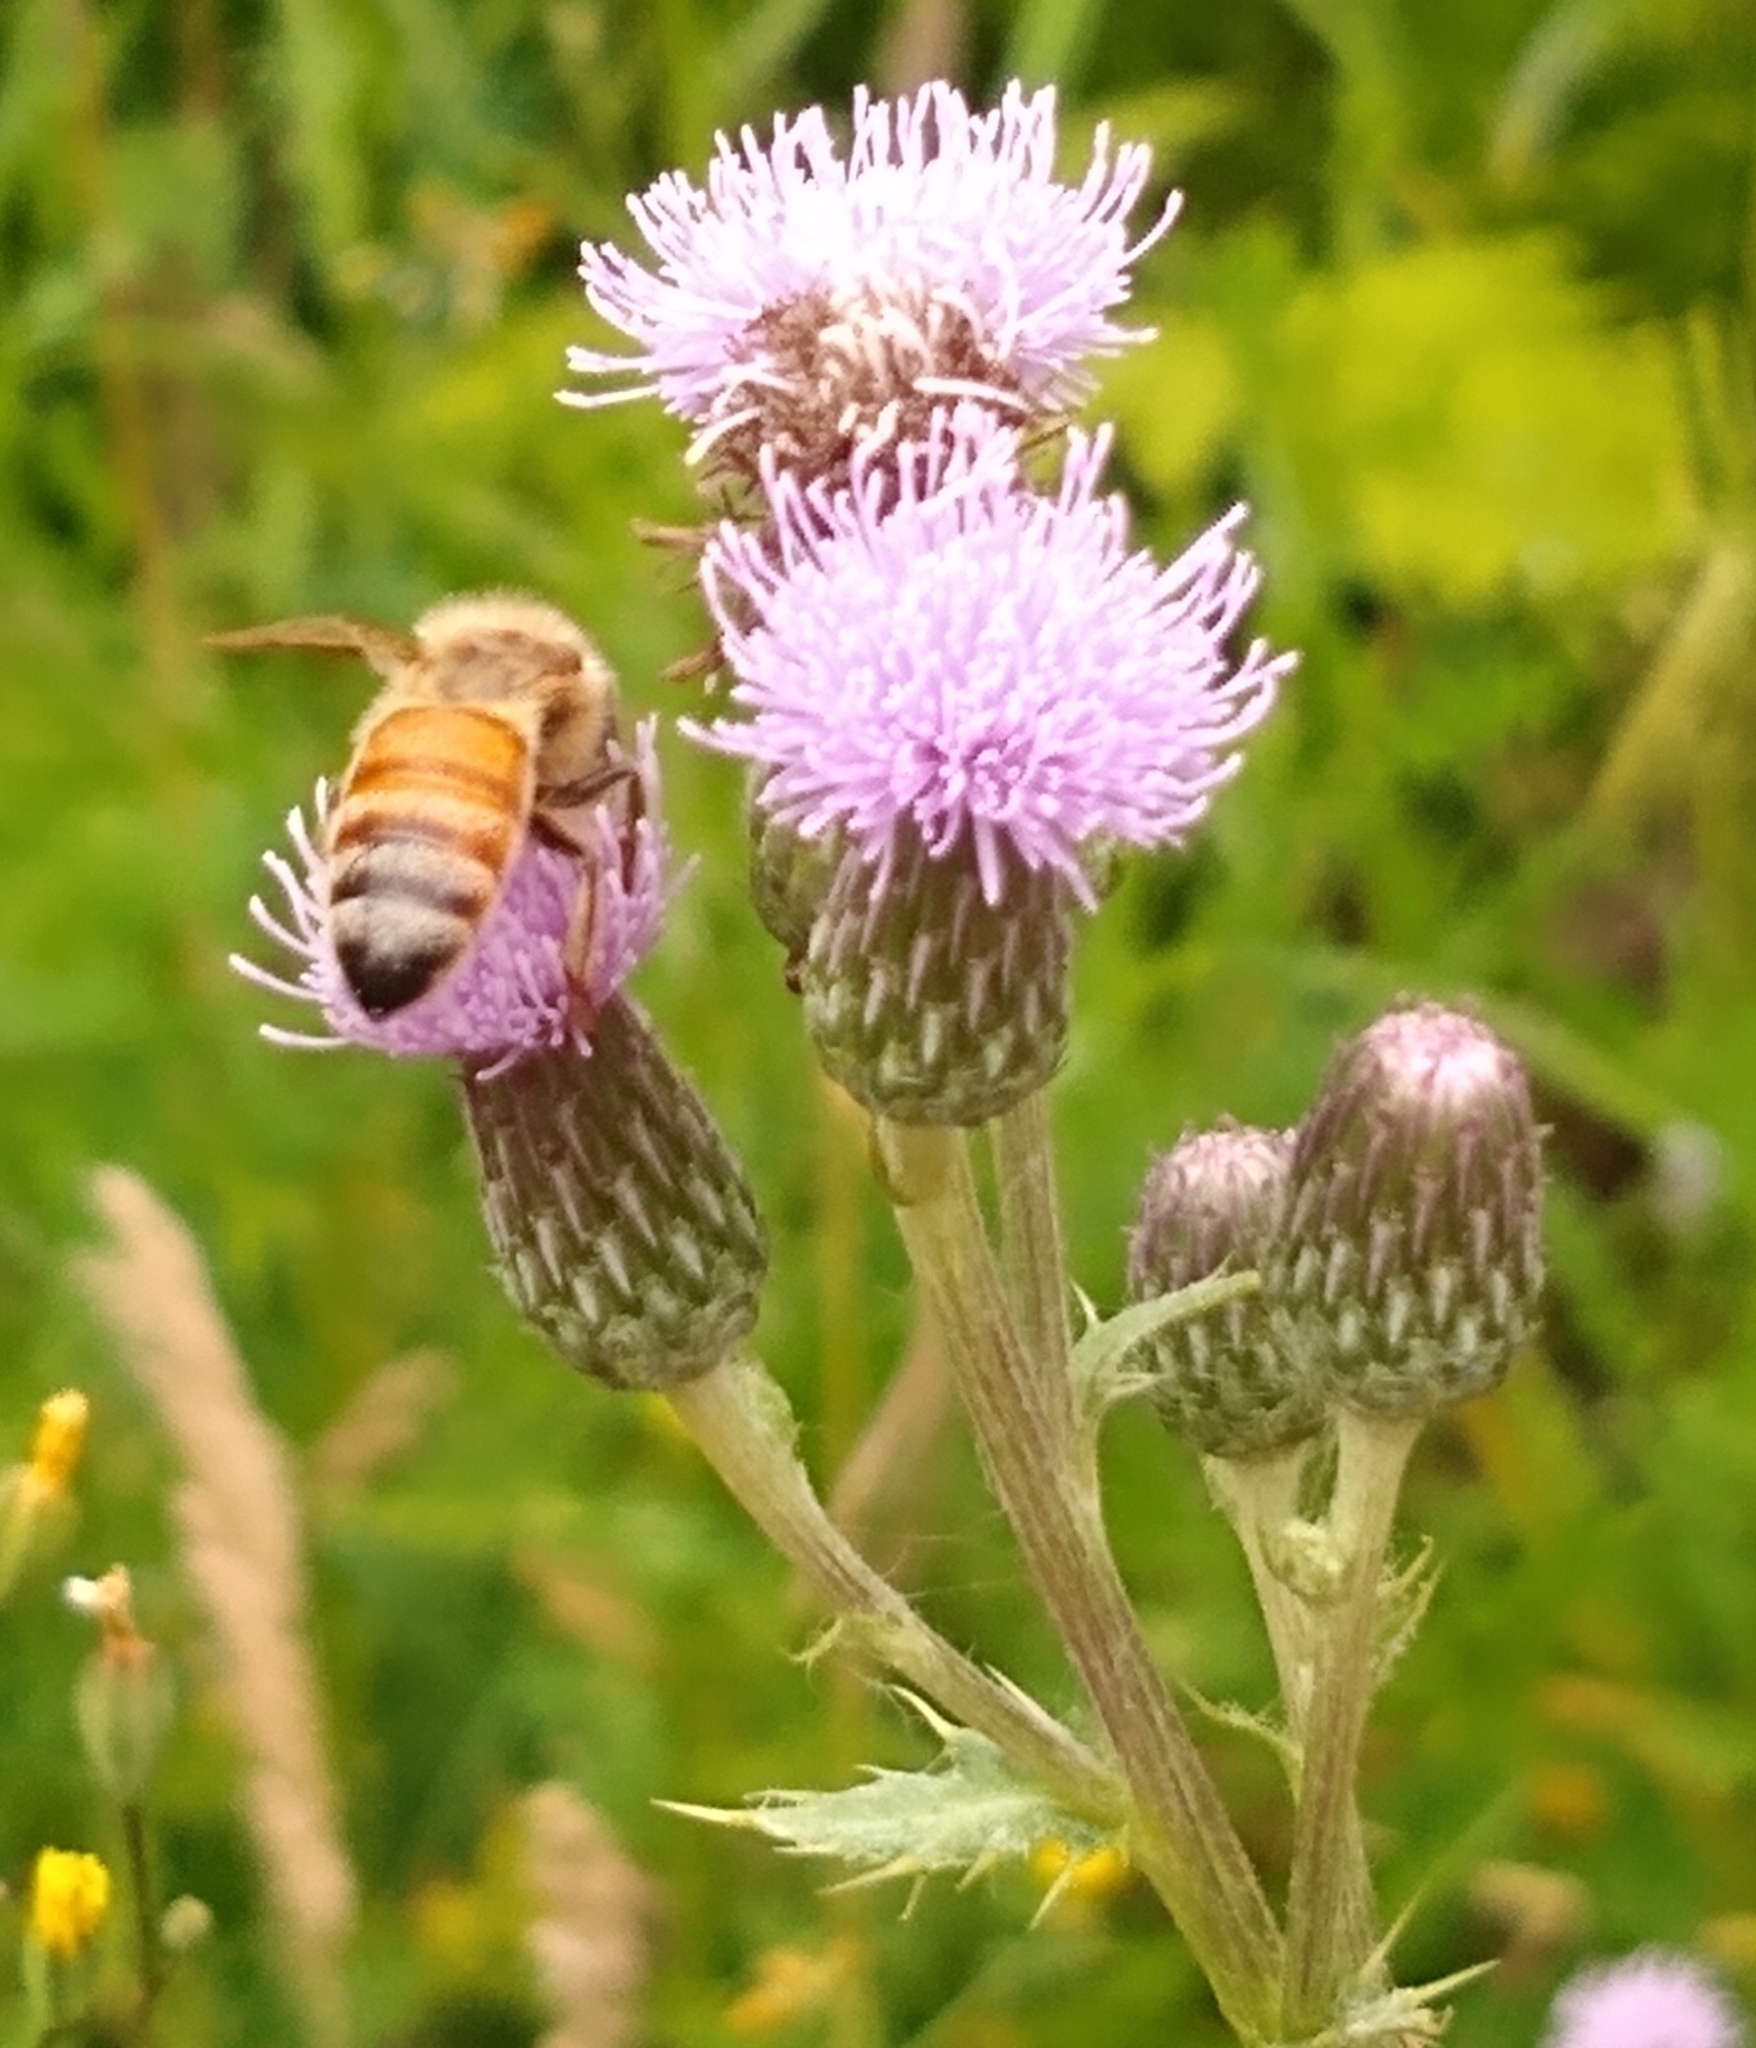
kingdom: Animalia
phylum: Arthropoda
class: Insecta
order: Hymenoptera
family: Apidae
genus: Apis
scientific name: Apis mellifera
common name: Honey bee
